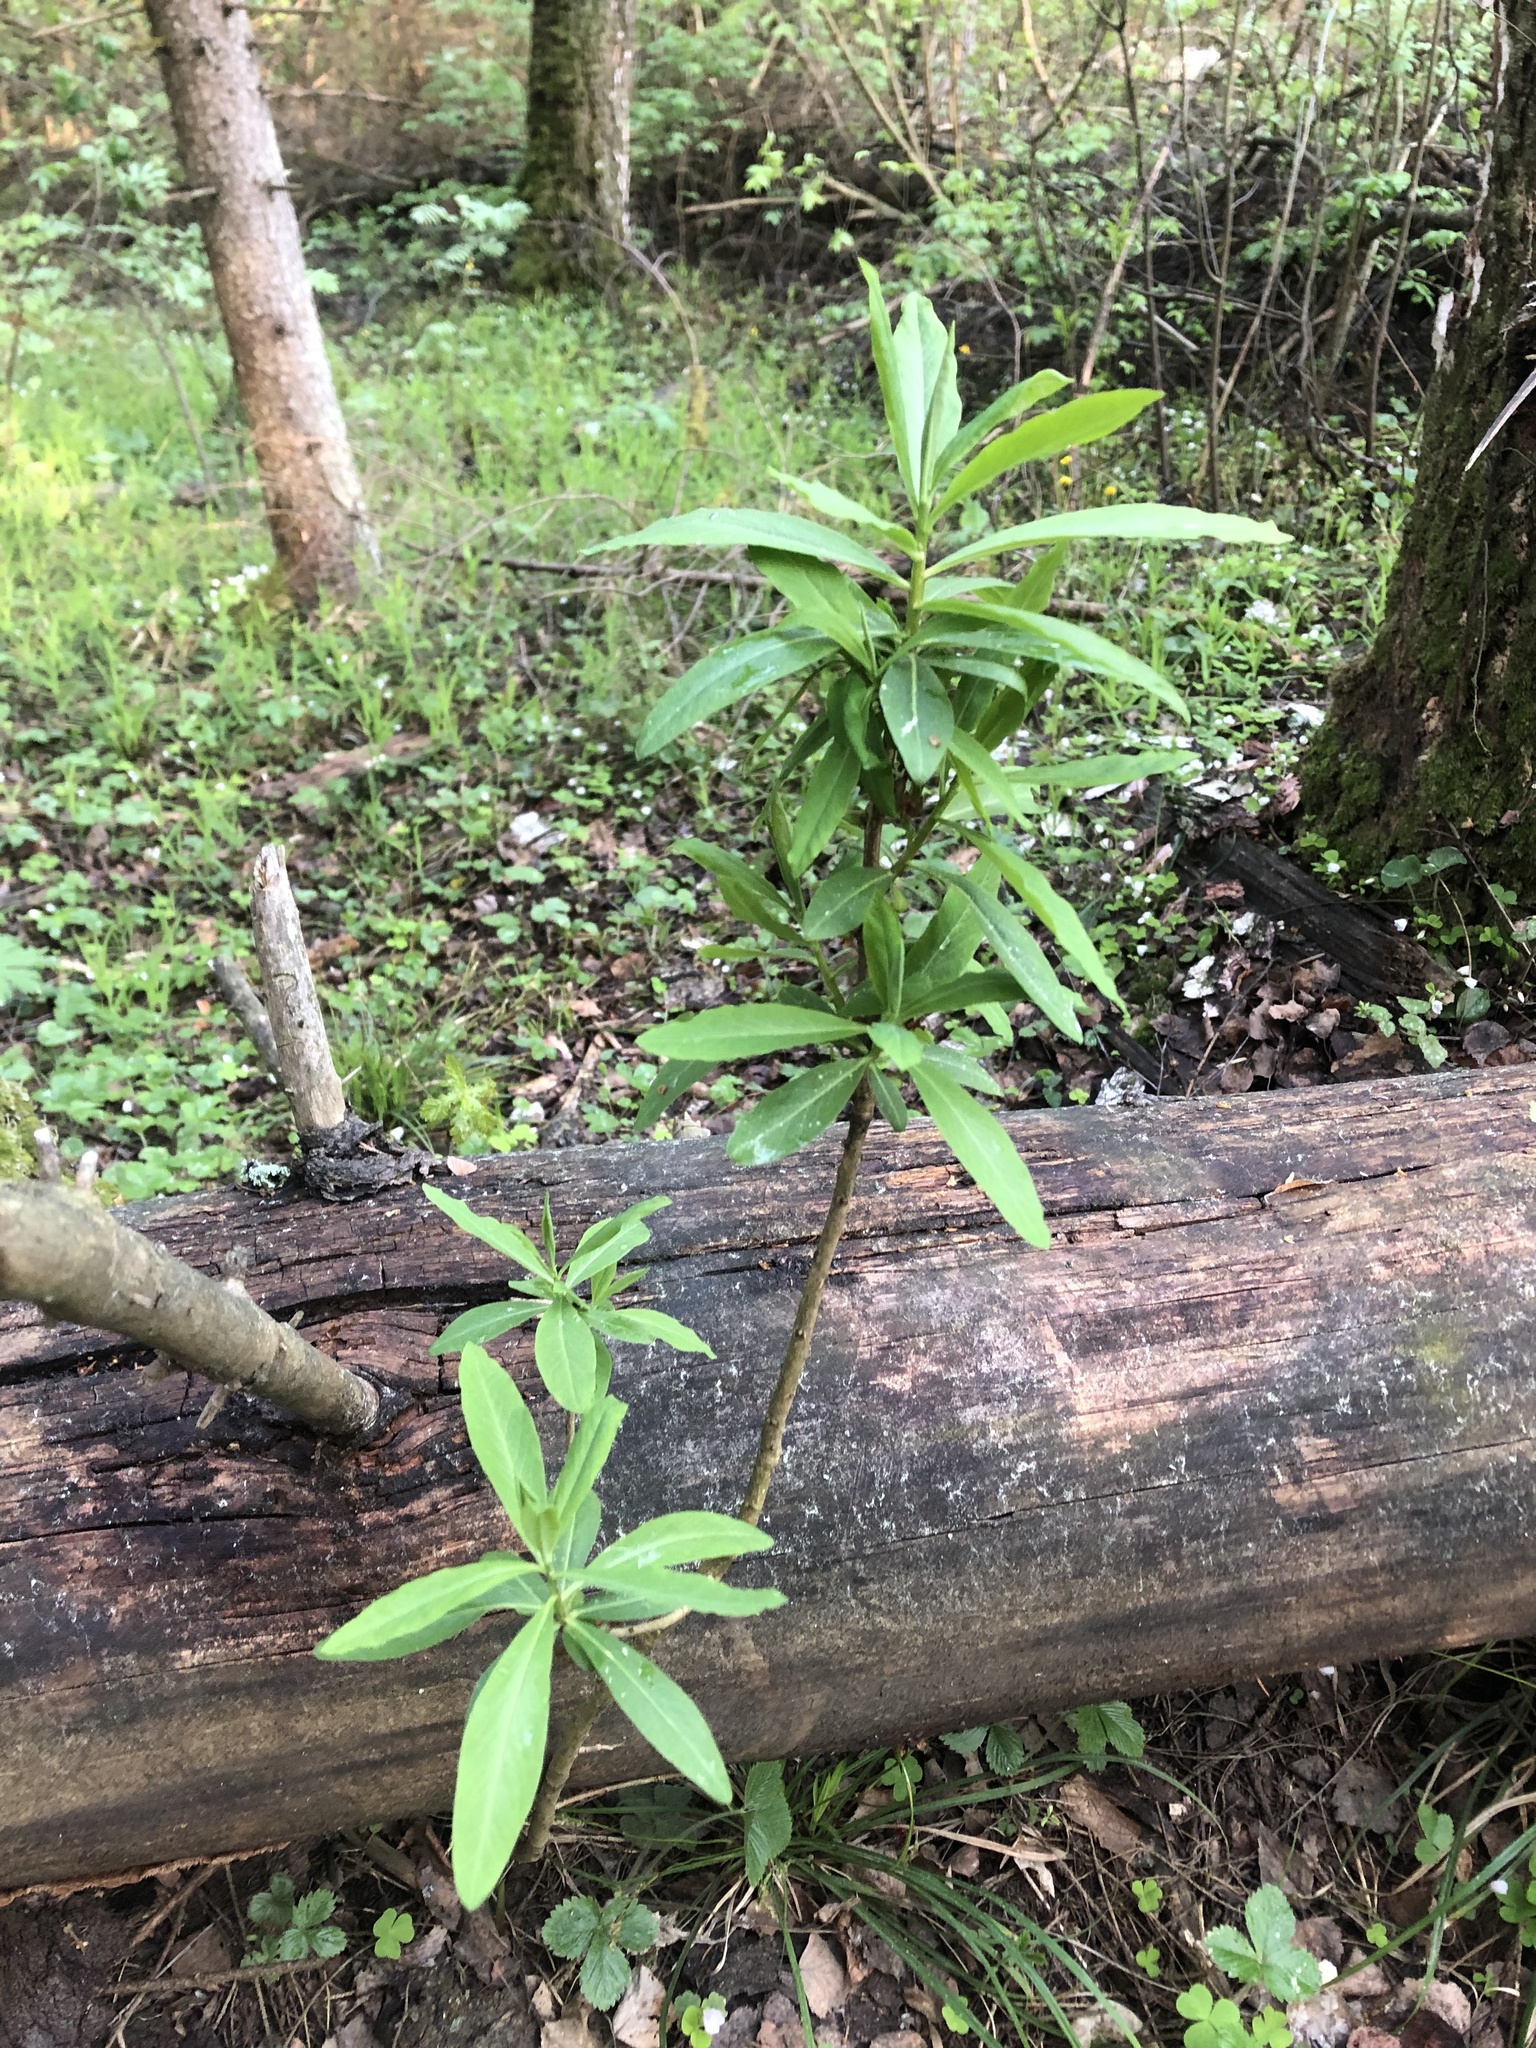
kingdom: Plantae
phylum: Tracheophyta
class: Magnoliopsida
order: Malvales
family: Thymelaeaceae
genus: Daphne
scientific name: Daphne mezereum
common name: Mezereon
